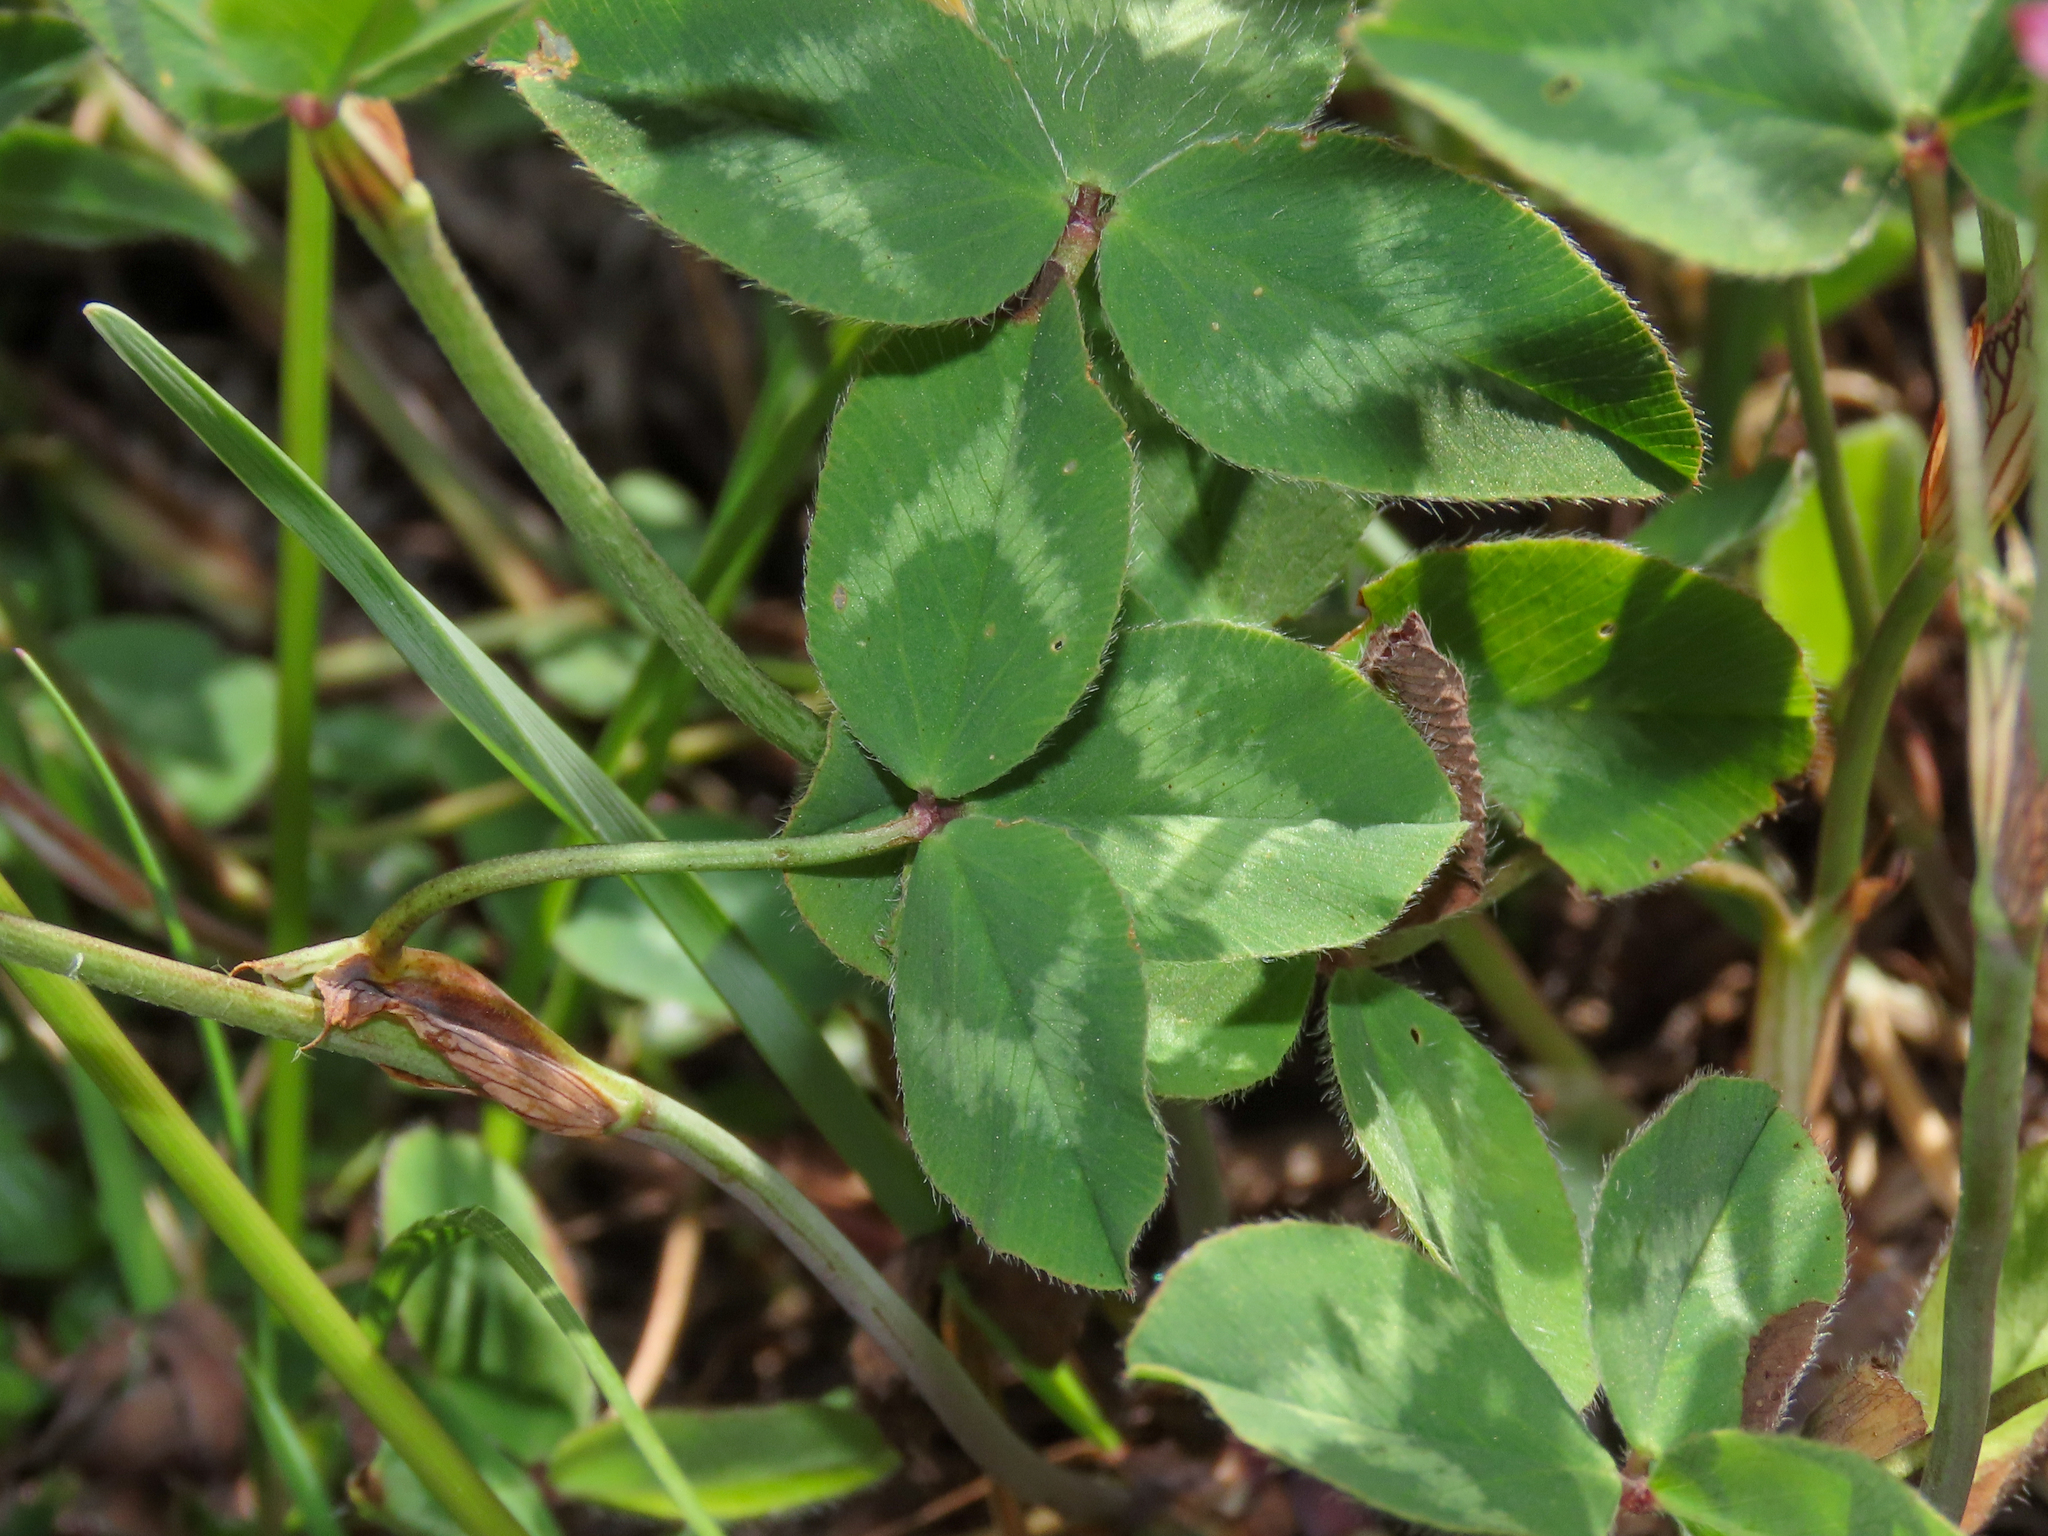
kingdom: Plantae
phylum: Tracheophyta
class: Magnoliopsida
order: Fabales
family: Fabaceae
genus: Trifolium
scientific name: Trifolium pratense
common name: Red clover
